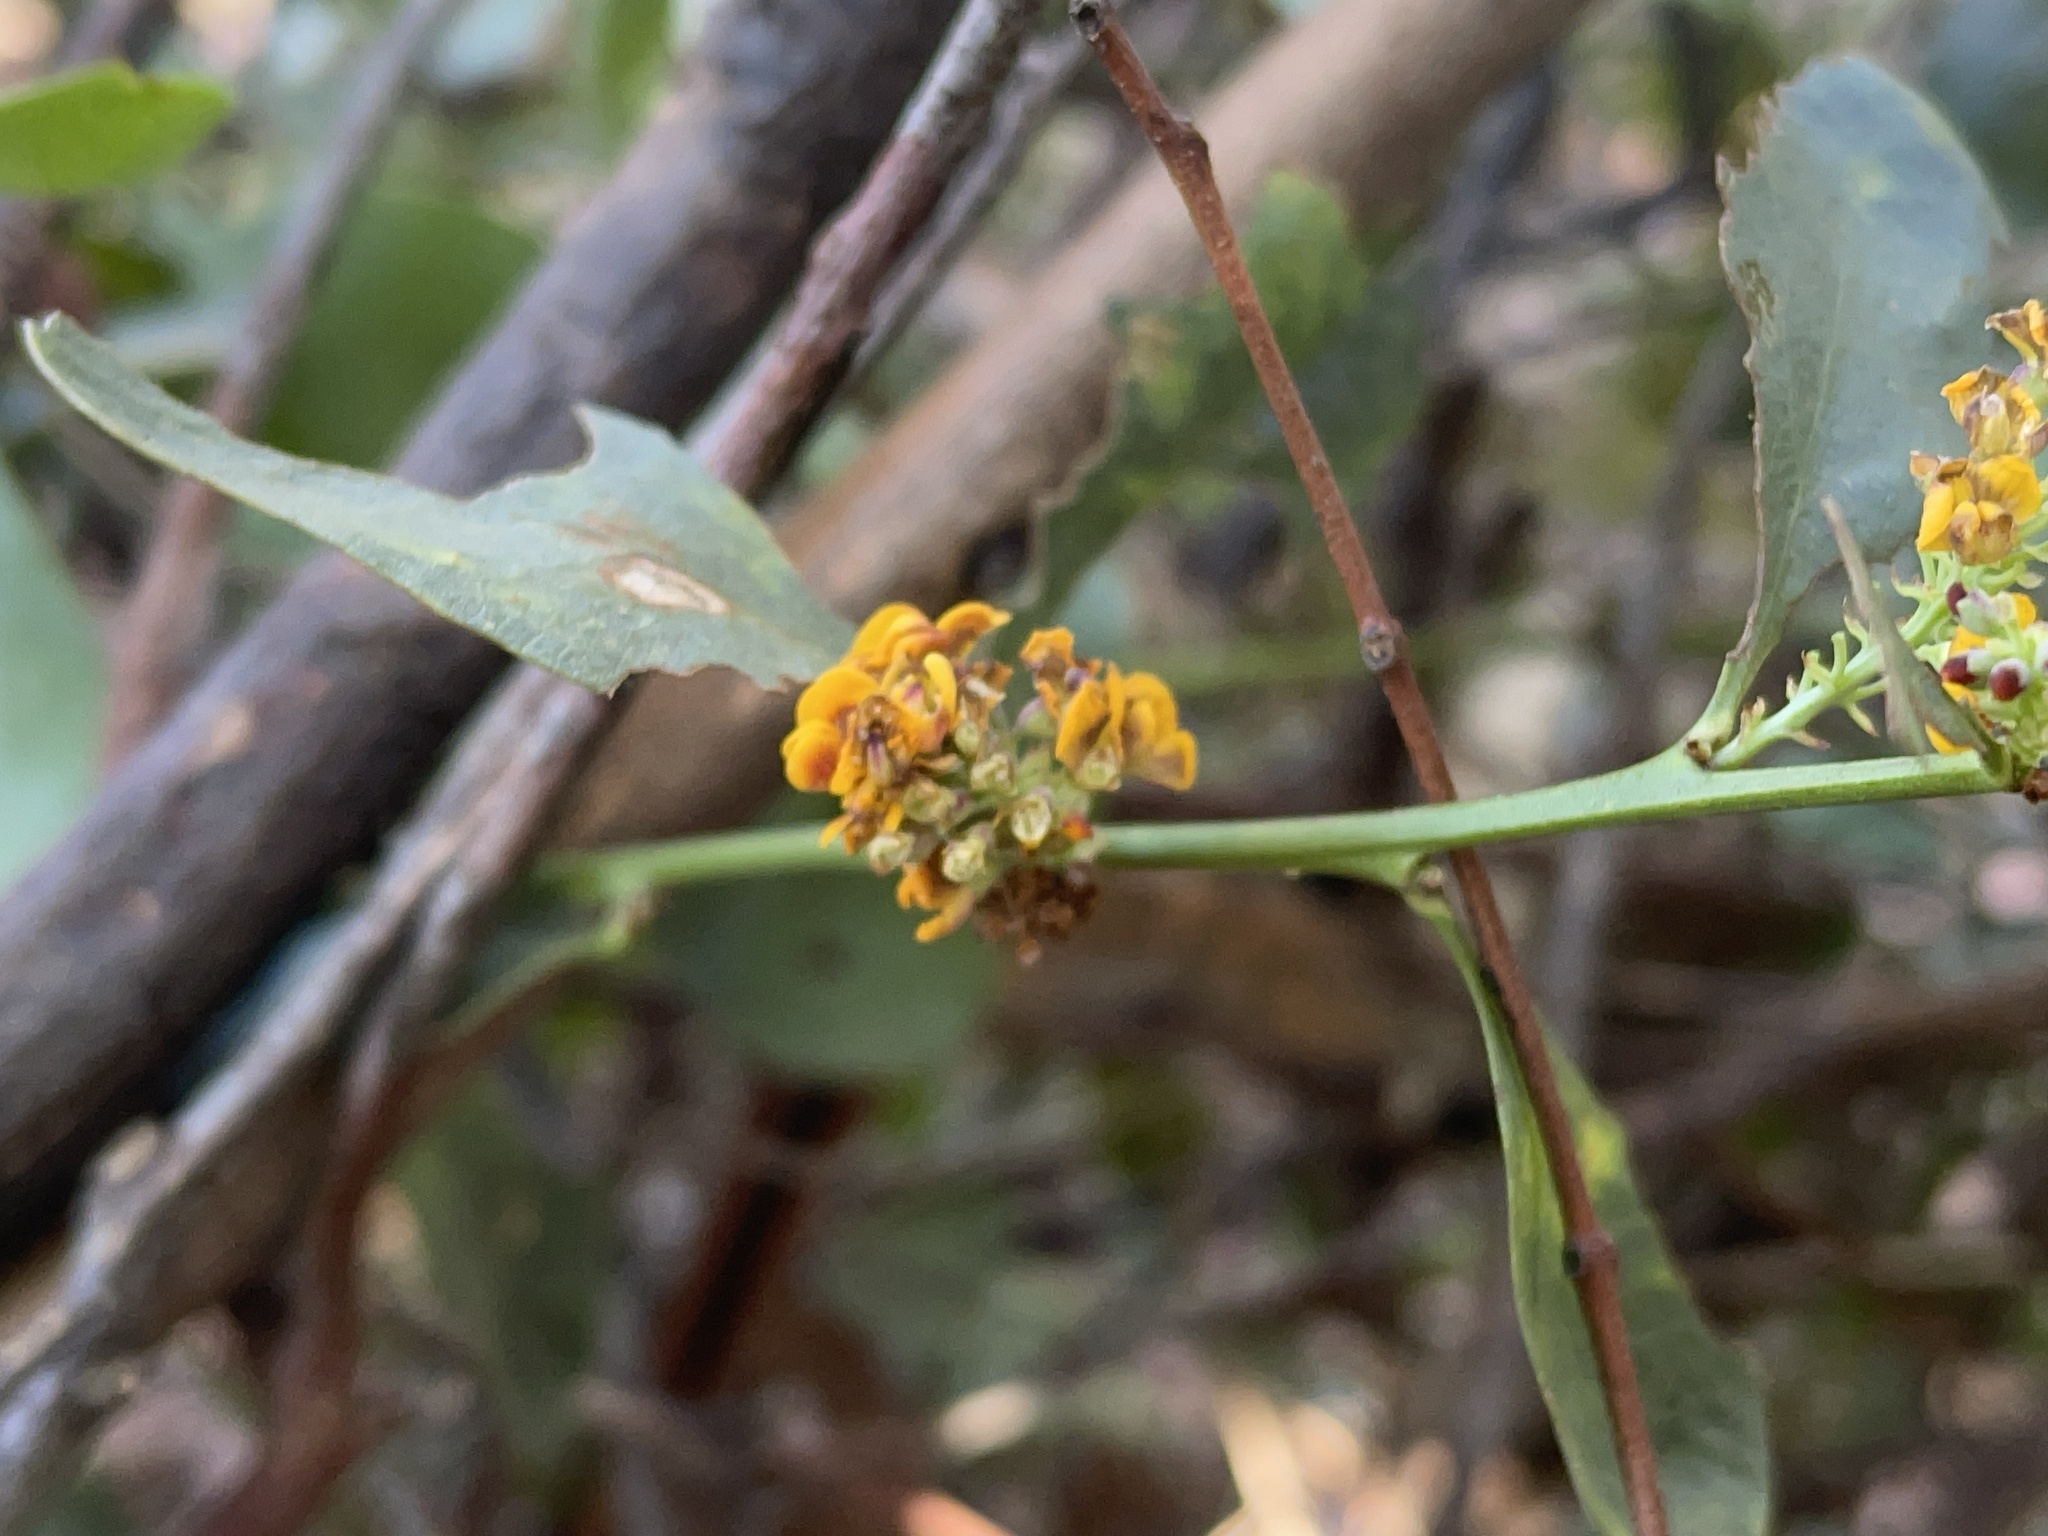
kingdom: Plantae
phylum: Tracheophyta
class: Magnoliopsida
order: Fabales
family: Fabaceae
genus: Daviesia
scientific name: Daviesia latifolia
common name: Hop bitter-pea
